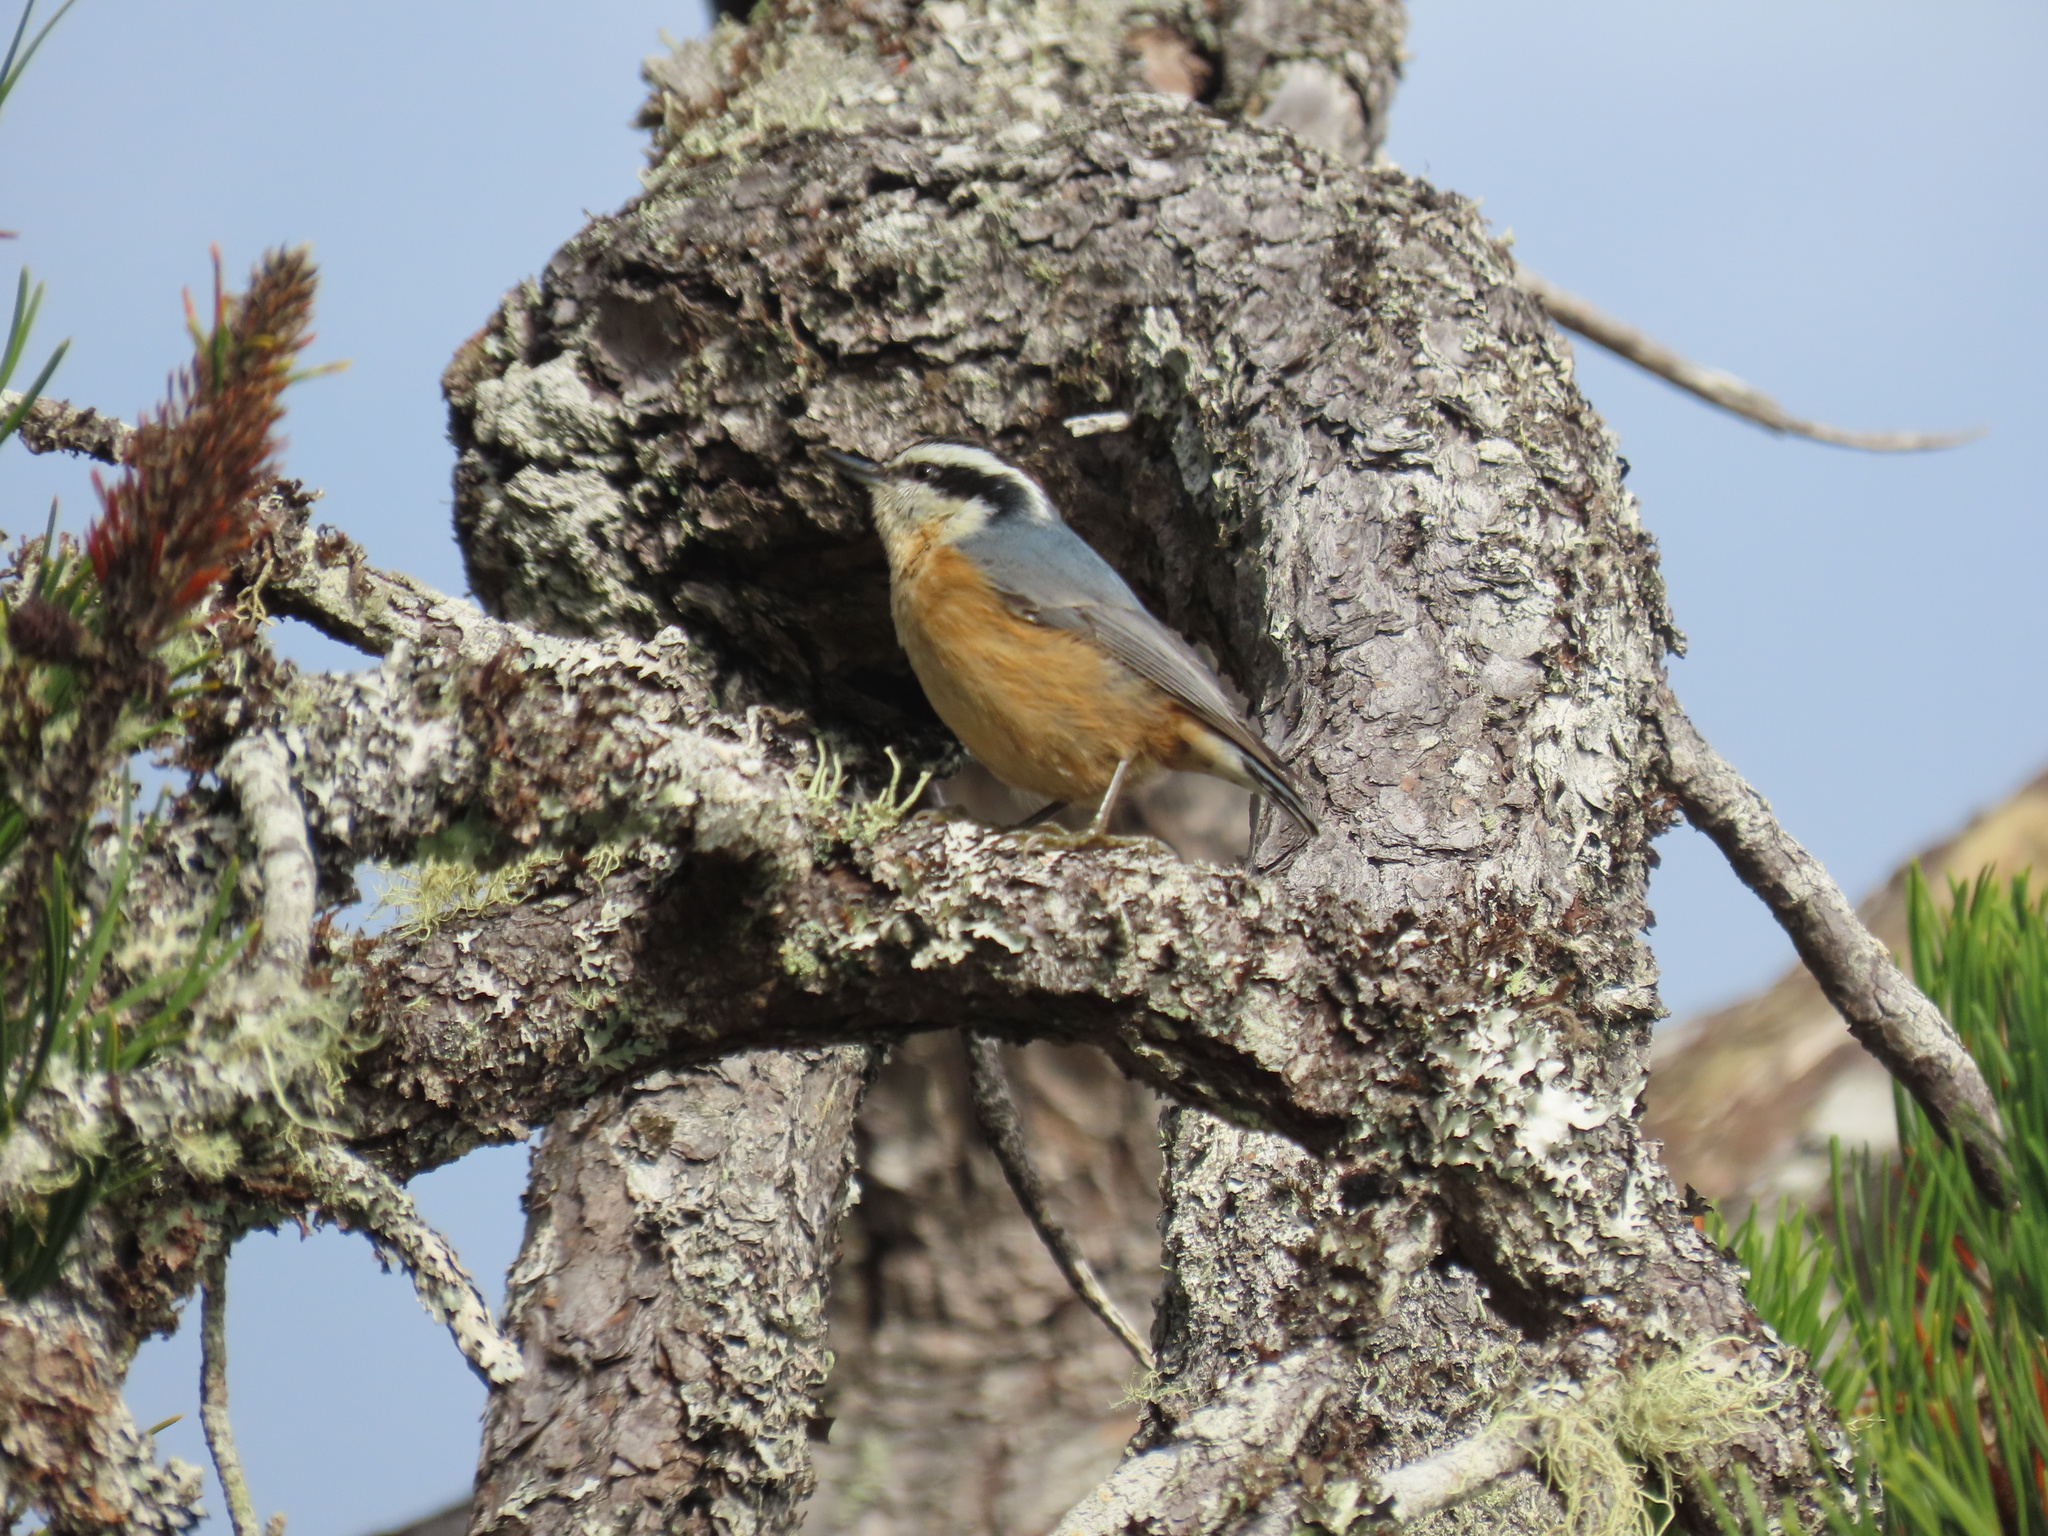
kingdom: Animalia
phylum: Chordata
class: Aves
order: Passeriformes
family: Sittidae
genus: Sitta
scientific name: Sitta canadensis
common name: Red-breasted nuthatch
